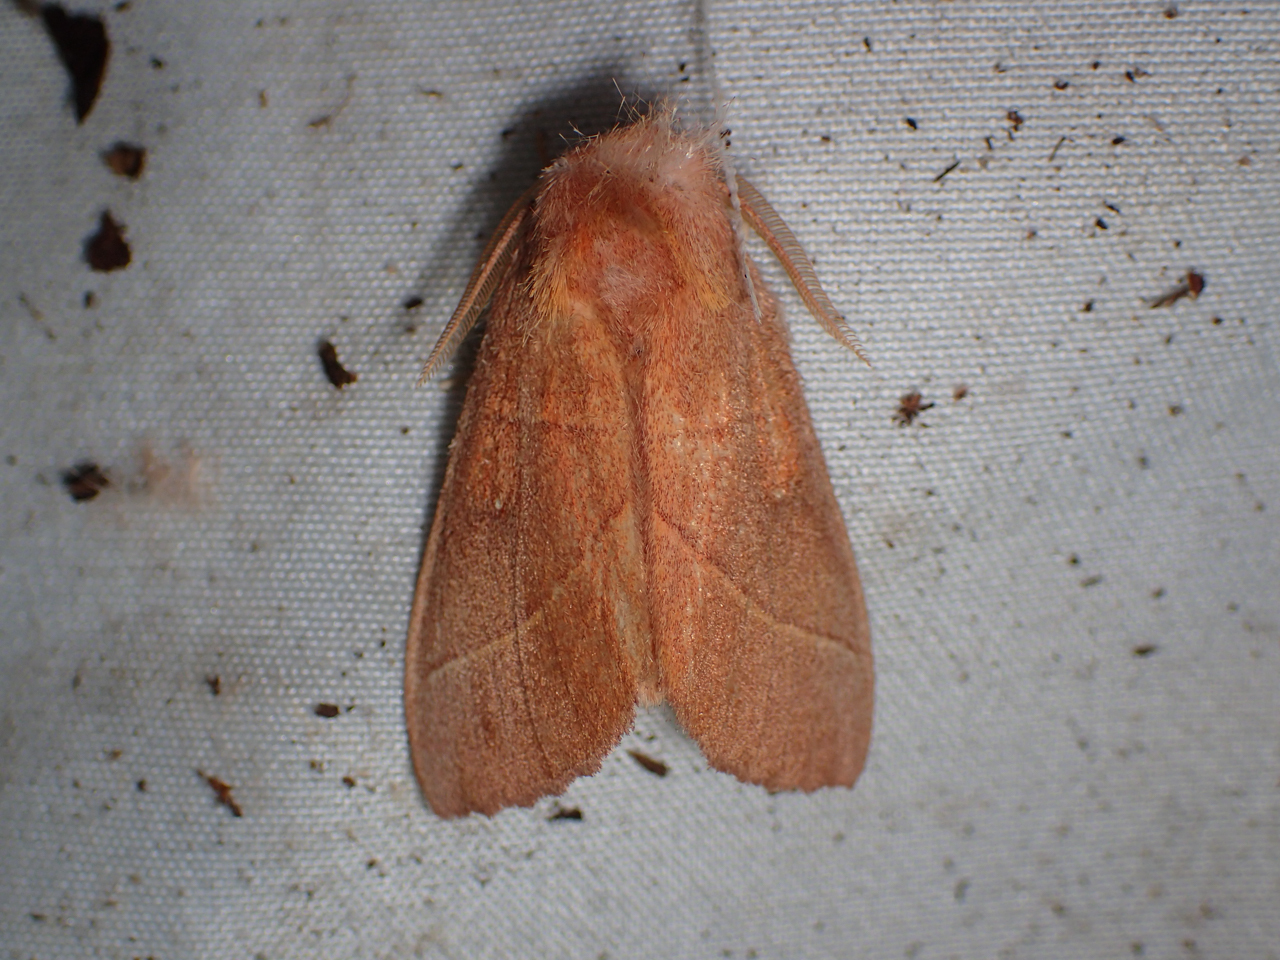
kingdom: Animalia
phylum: Arthropoda
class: Insecta
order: Lepidoptera
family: Notodontidae
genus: Nadata
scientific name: Nadata gibbosa
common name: White-dotted prominent
